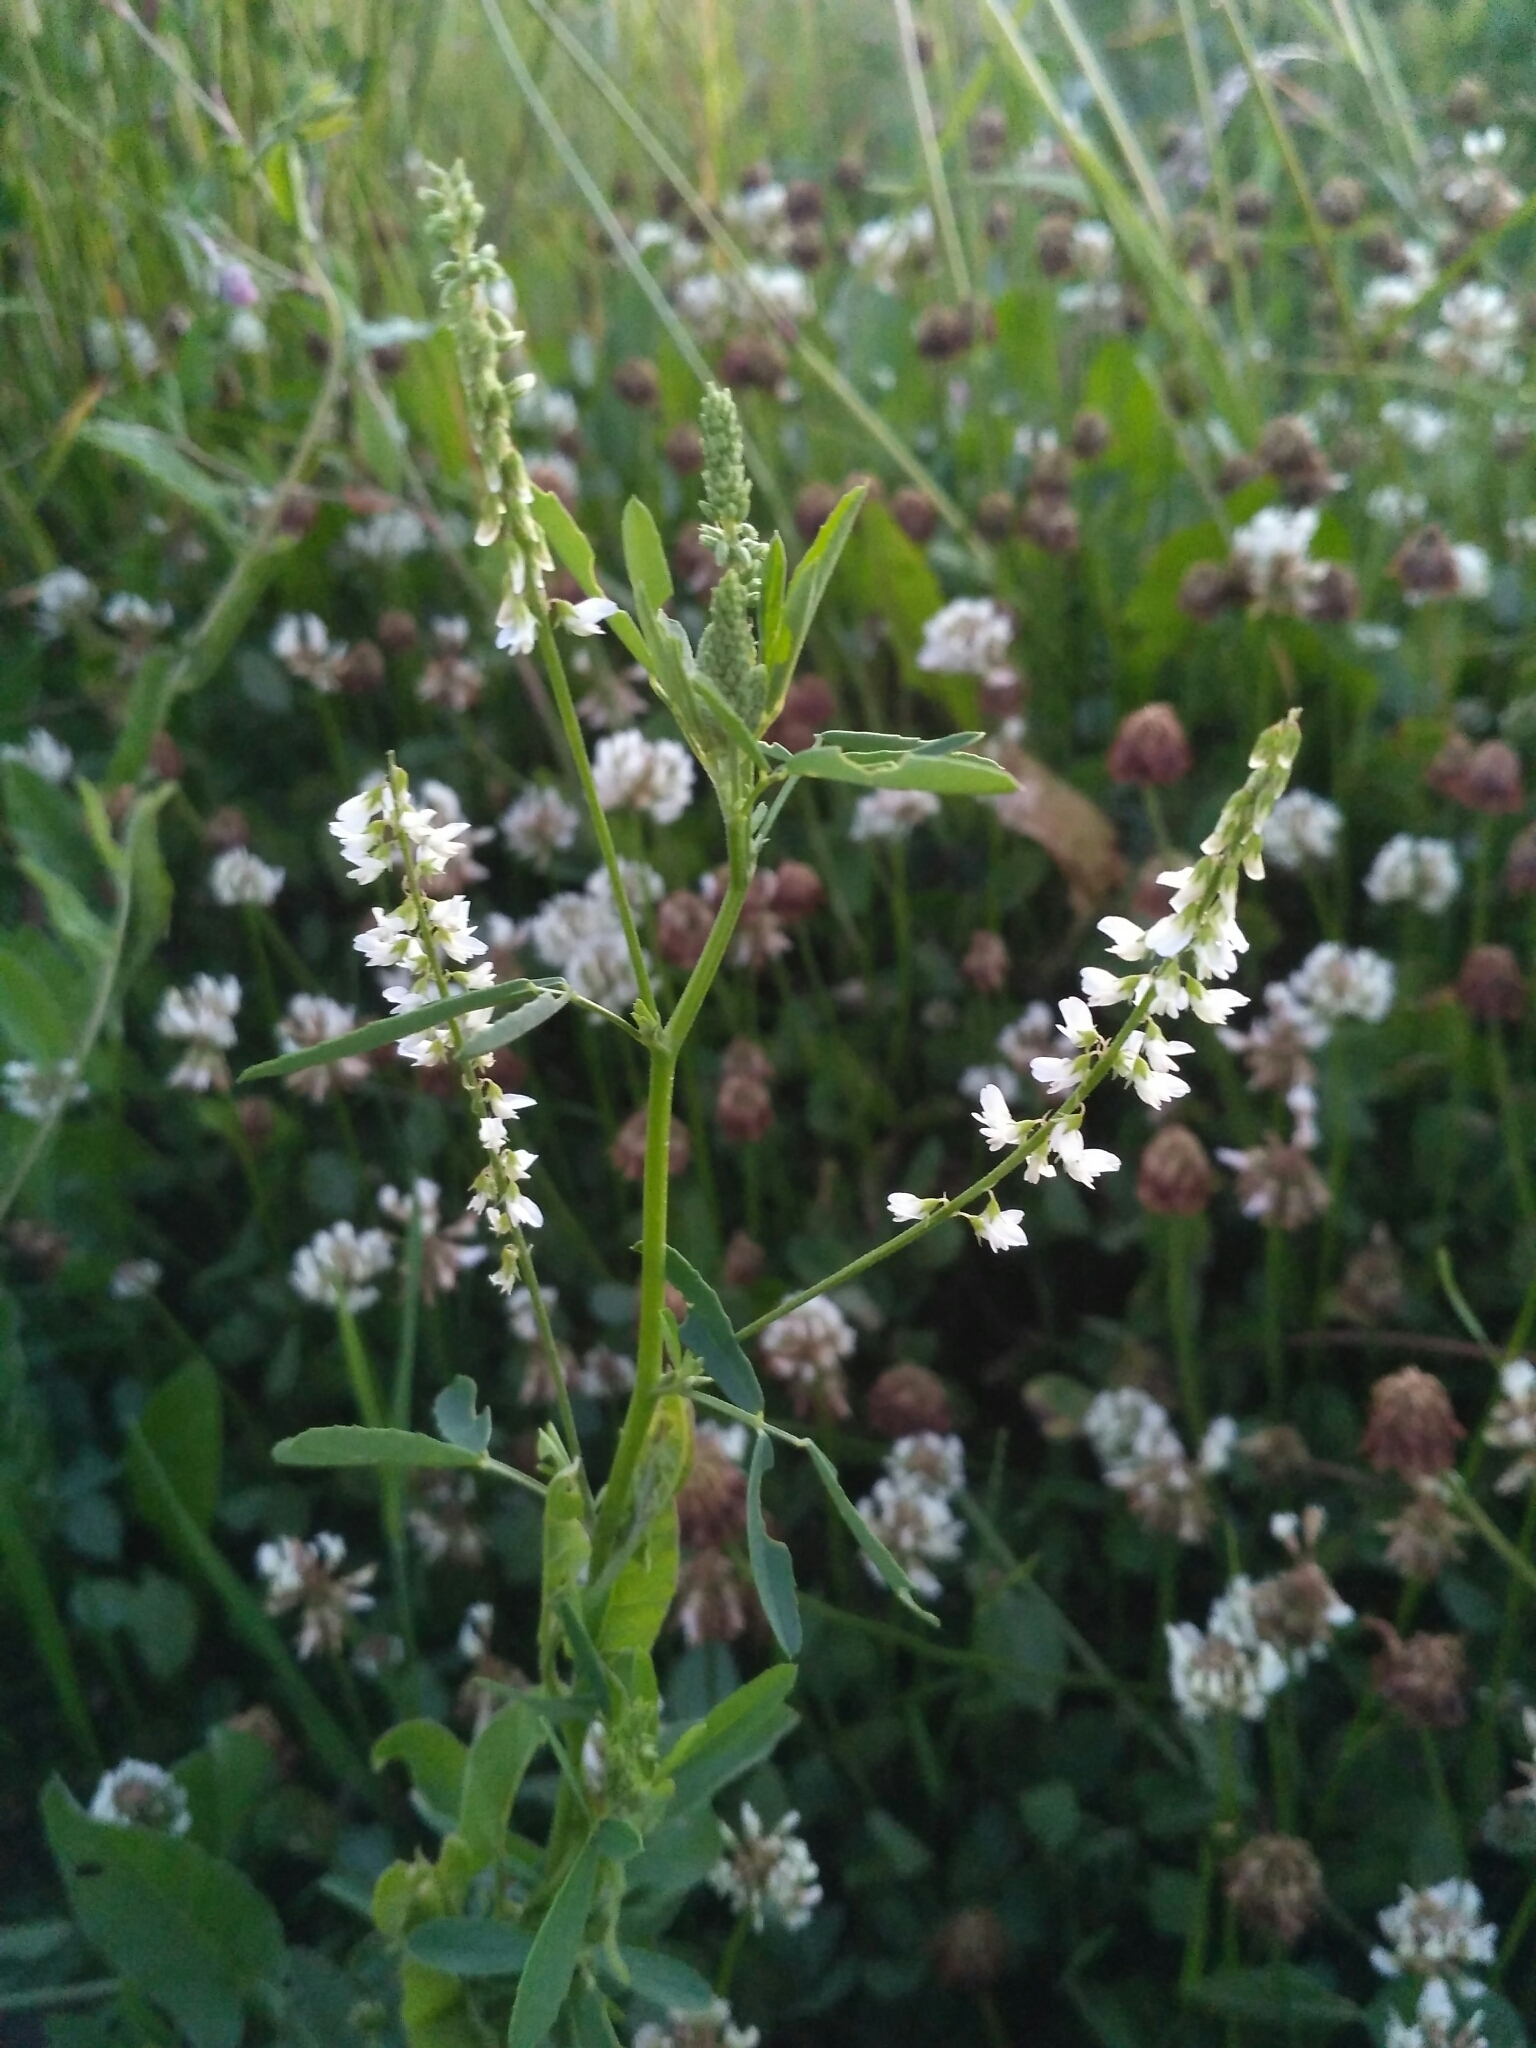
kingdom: Plantae
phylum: Tracheophyta
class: Magnoliopsida
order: Fabales
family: Fabaceae
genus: Melilotus
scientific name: Melilotus albus
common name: White melilot
